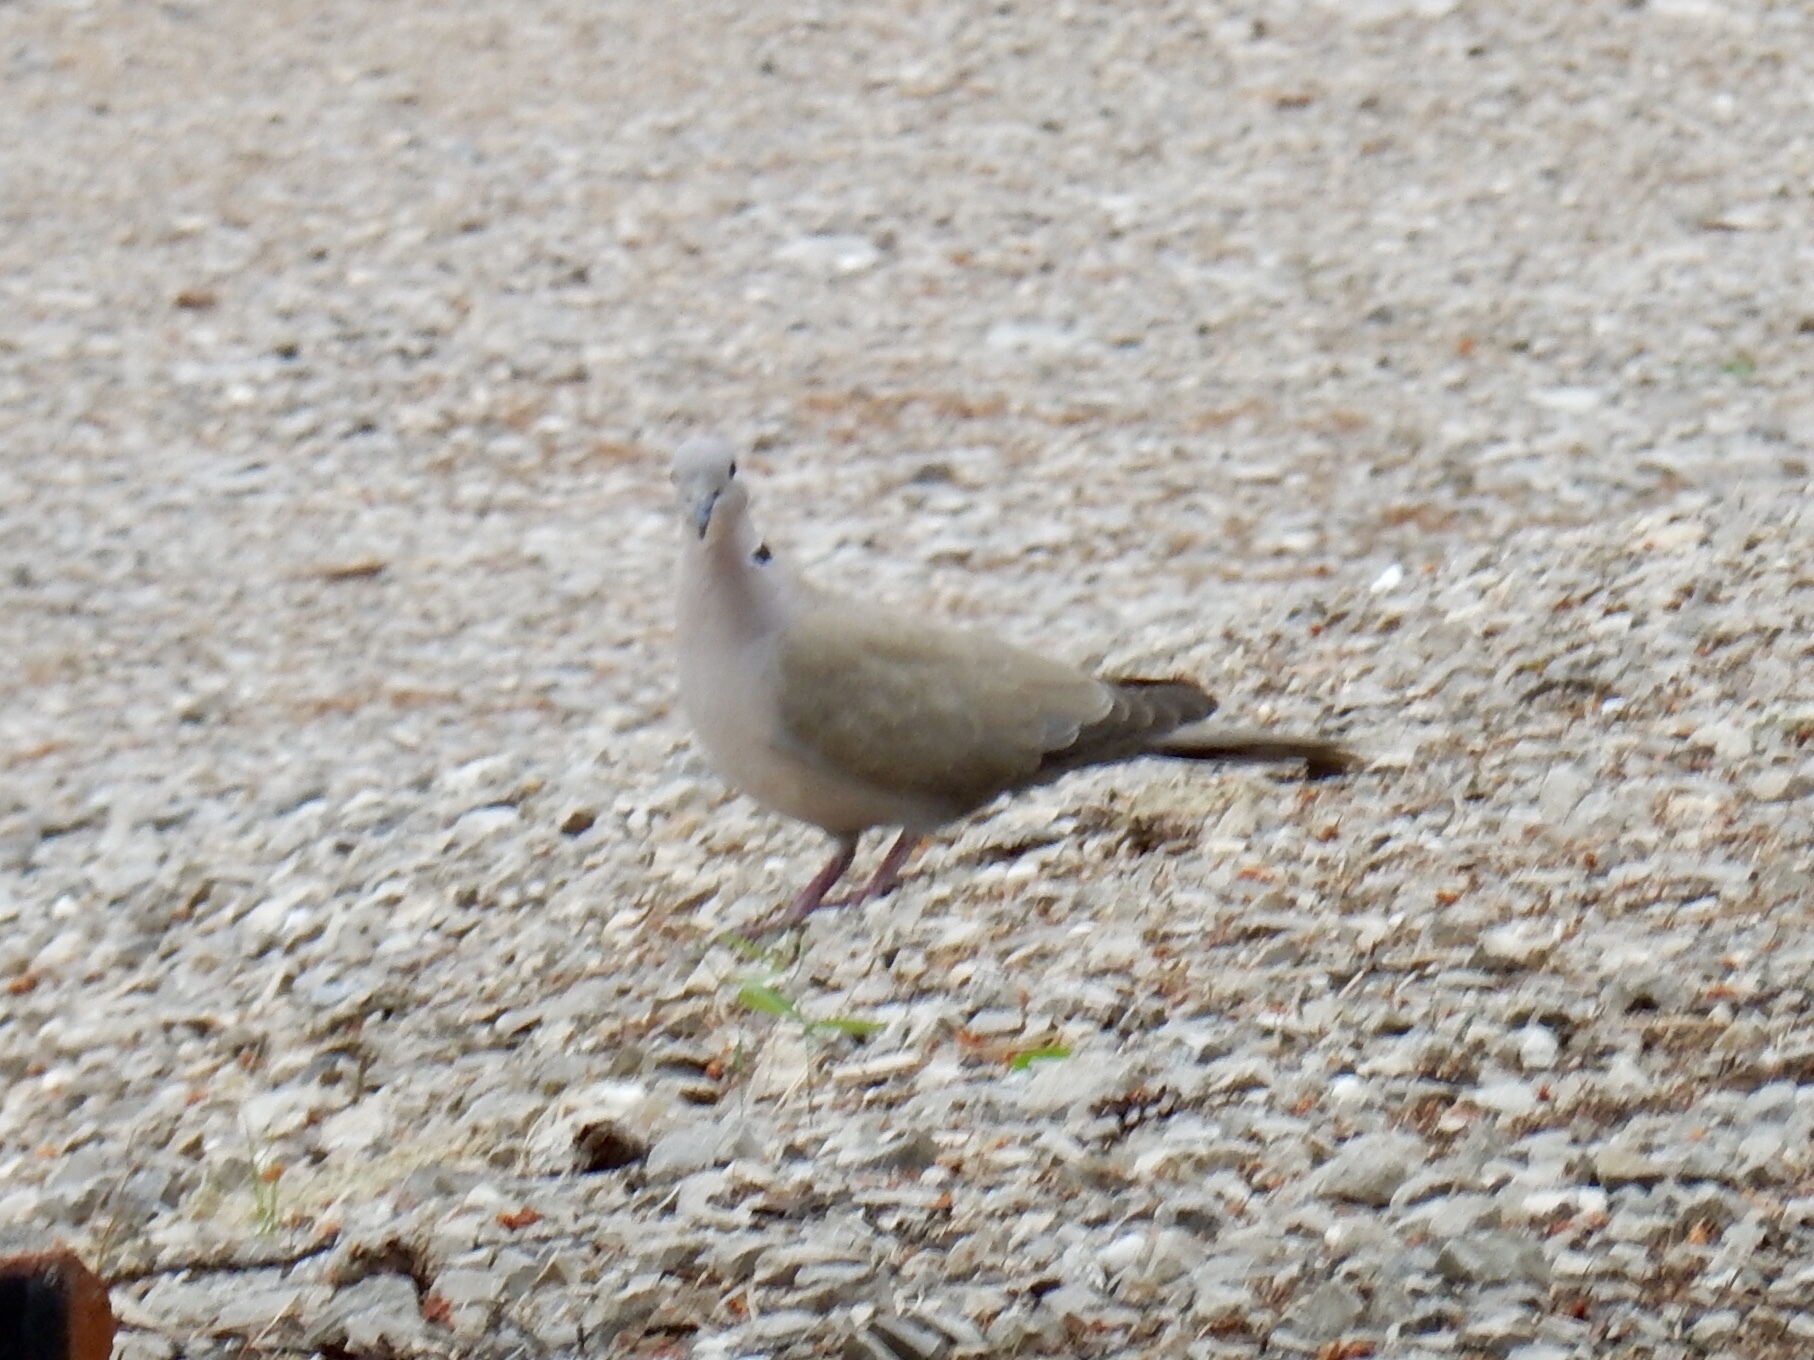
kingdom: Animalia
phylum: Chordata
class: Aves
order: Columbiformes
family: Columbidae
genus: Streptopelia
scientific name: Streptopelia decaocto
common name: Eurasian collared dove
